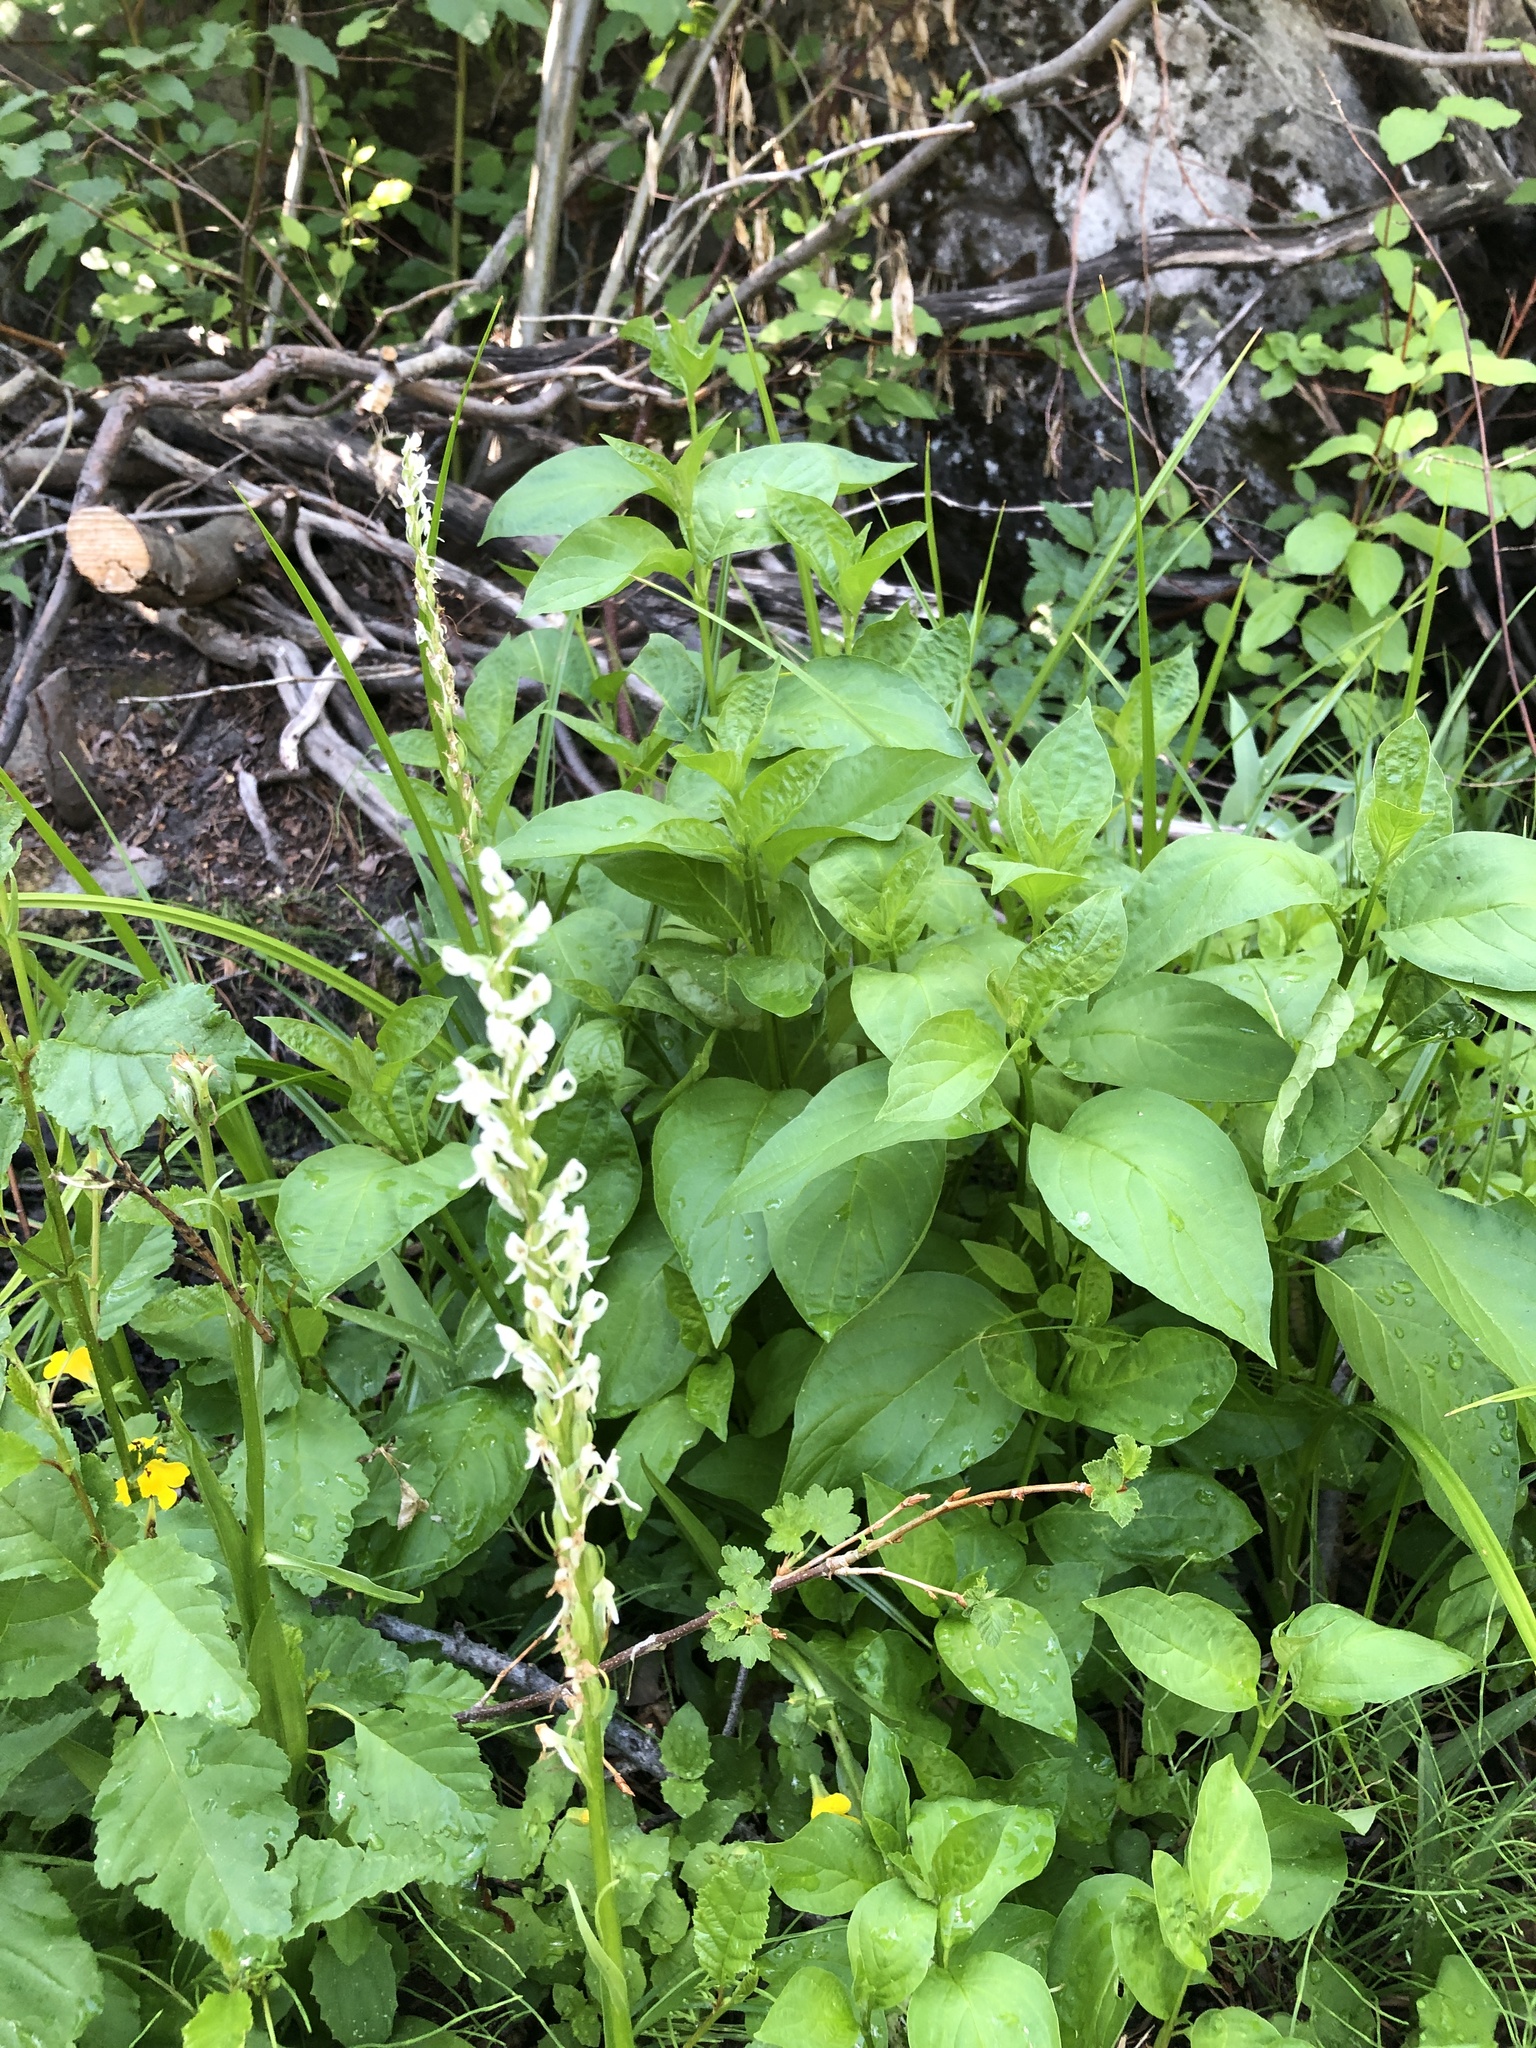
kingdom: Plantae
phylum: Tracheophyta
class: Liliopsida
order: Asparagales
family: Orchidaceae
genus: Platanthera
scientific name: Platanthera dilatata
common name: Bog candles
